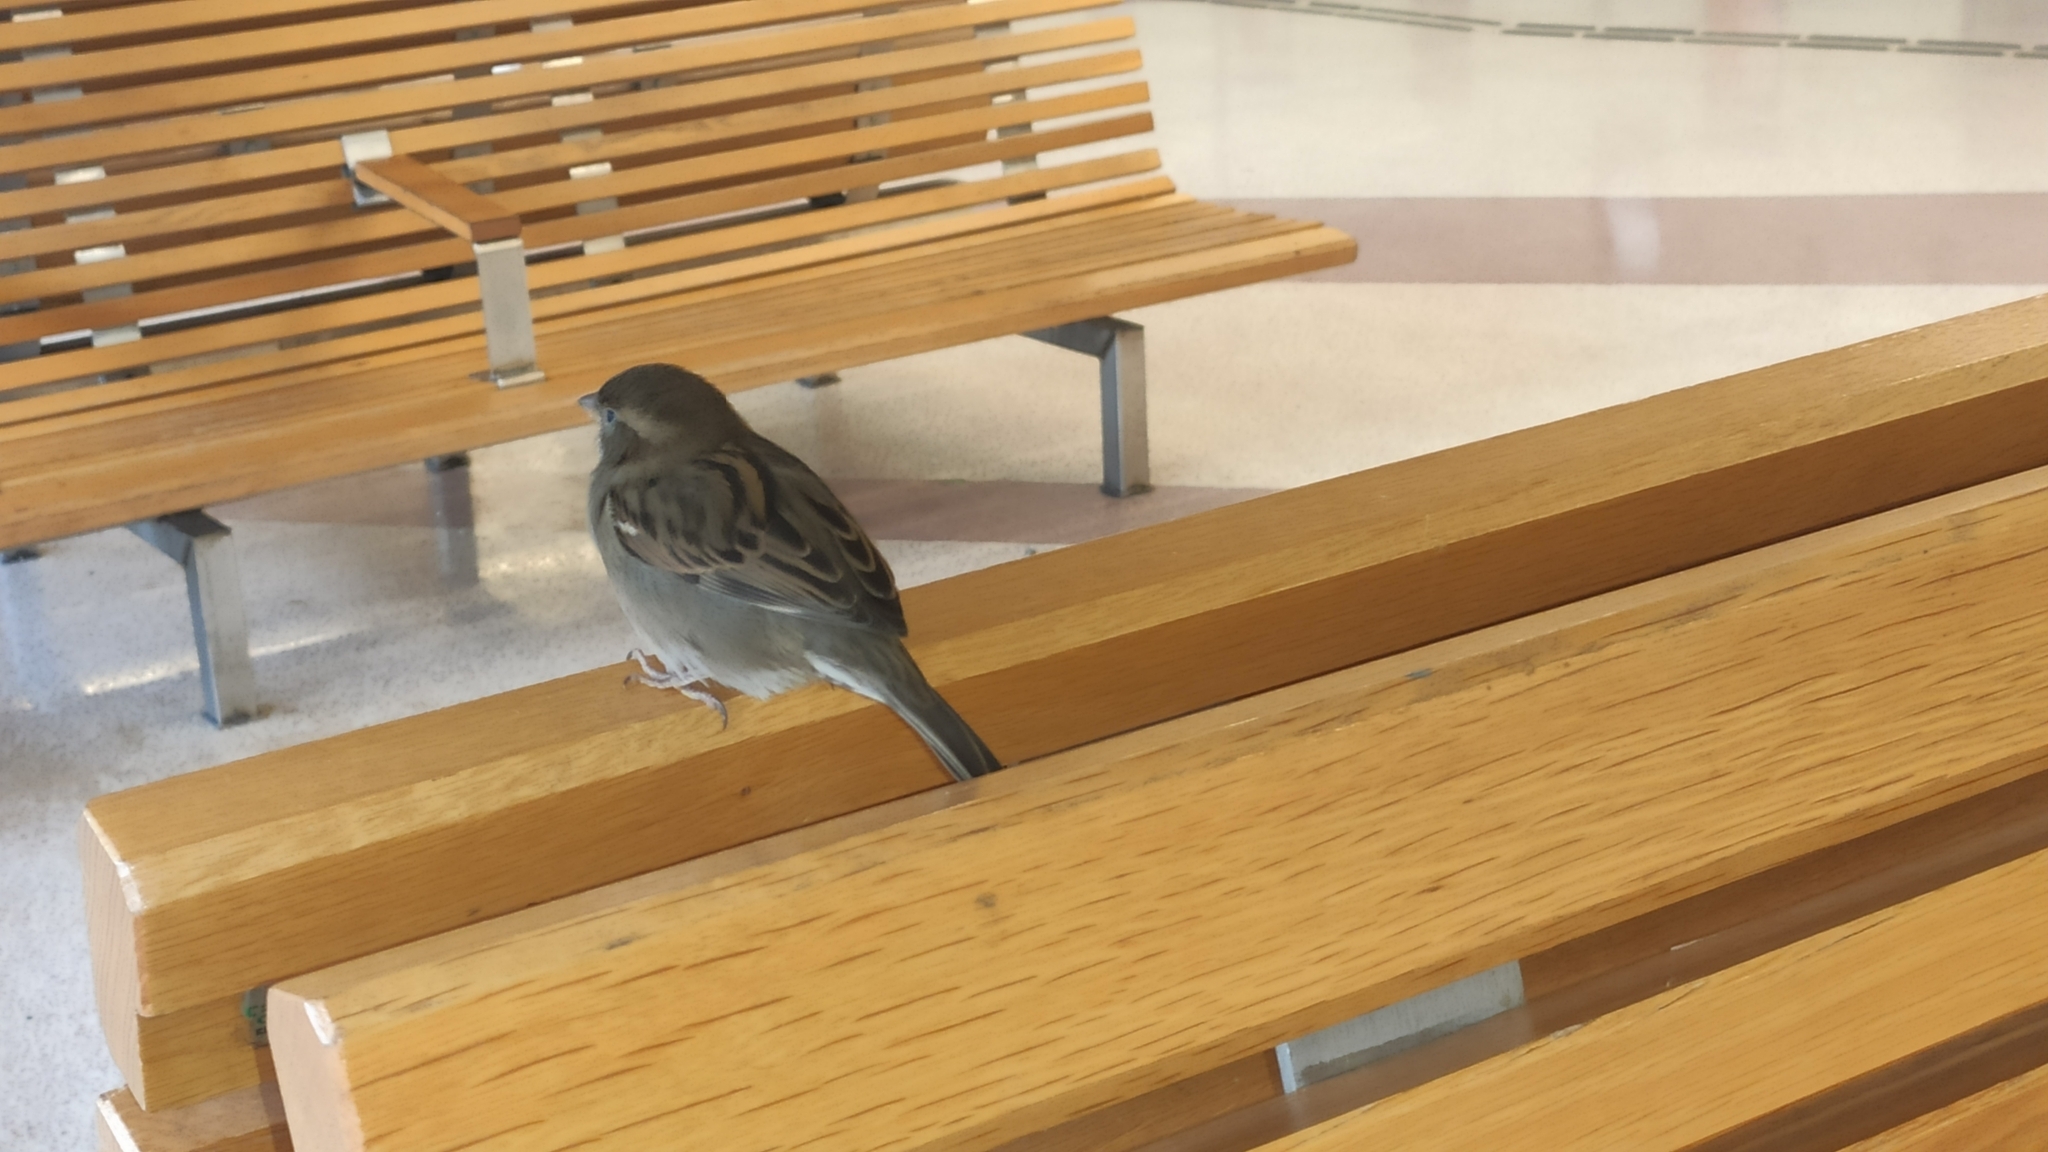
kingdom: Animalia
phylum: Chordata
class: Aves
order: Passeriformes
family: Passeridae
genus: Passer
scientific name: Passer domesticus
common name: House sparrow
